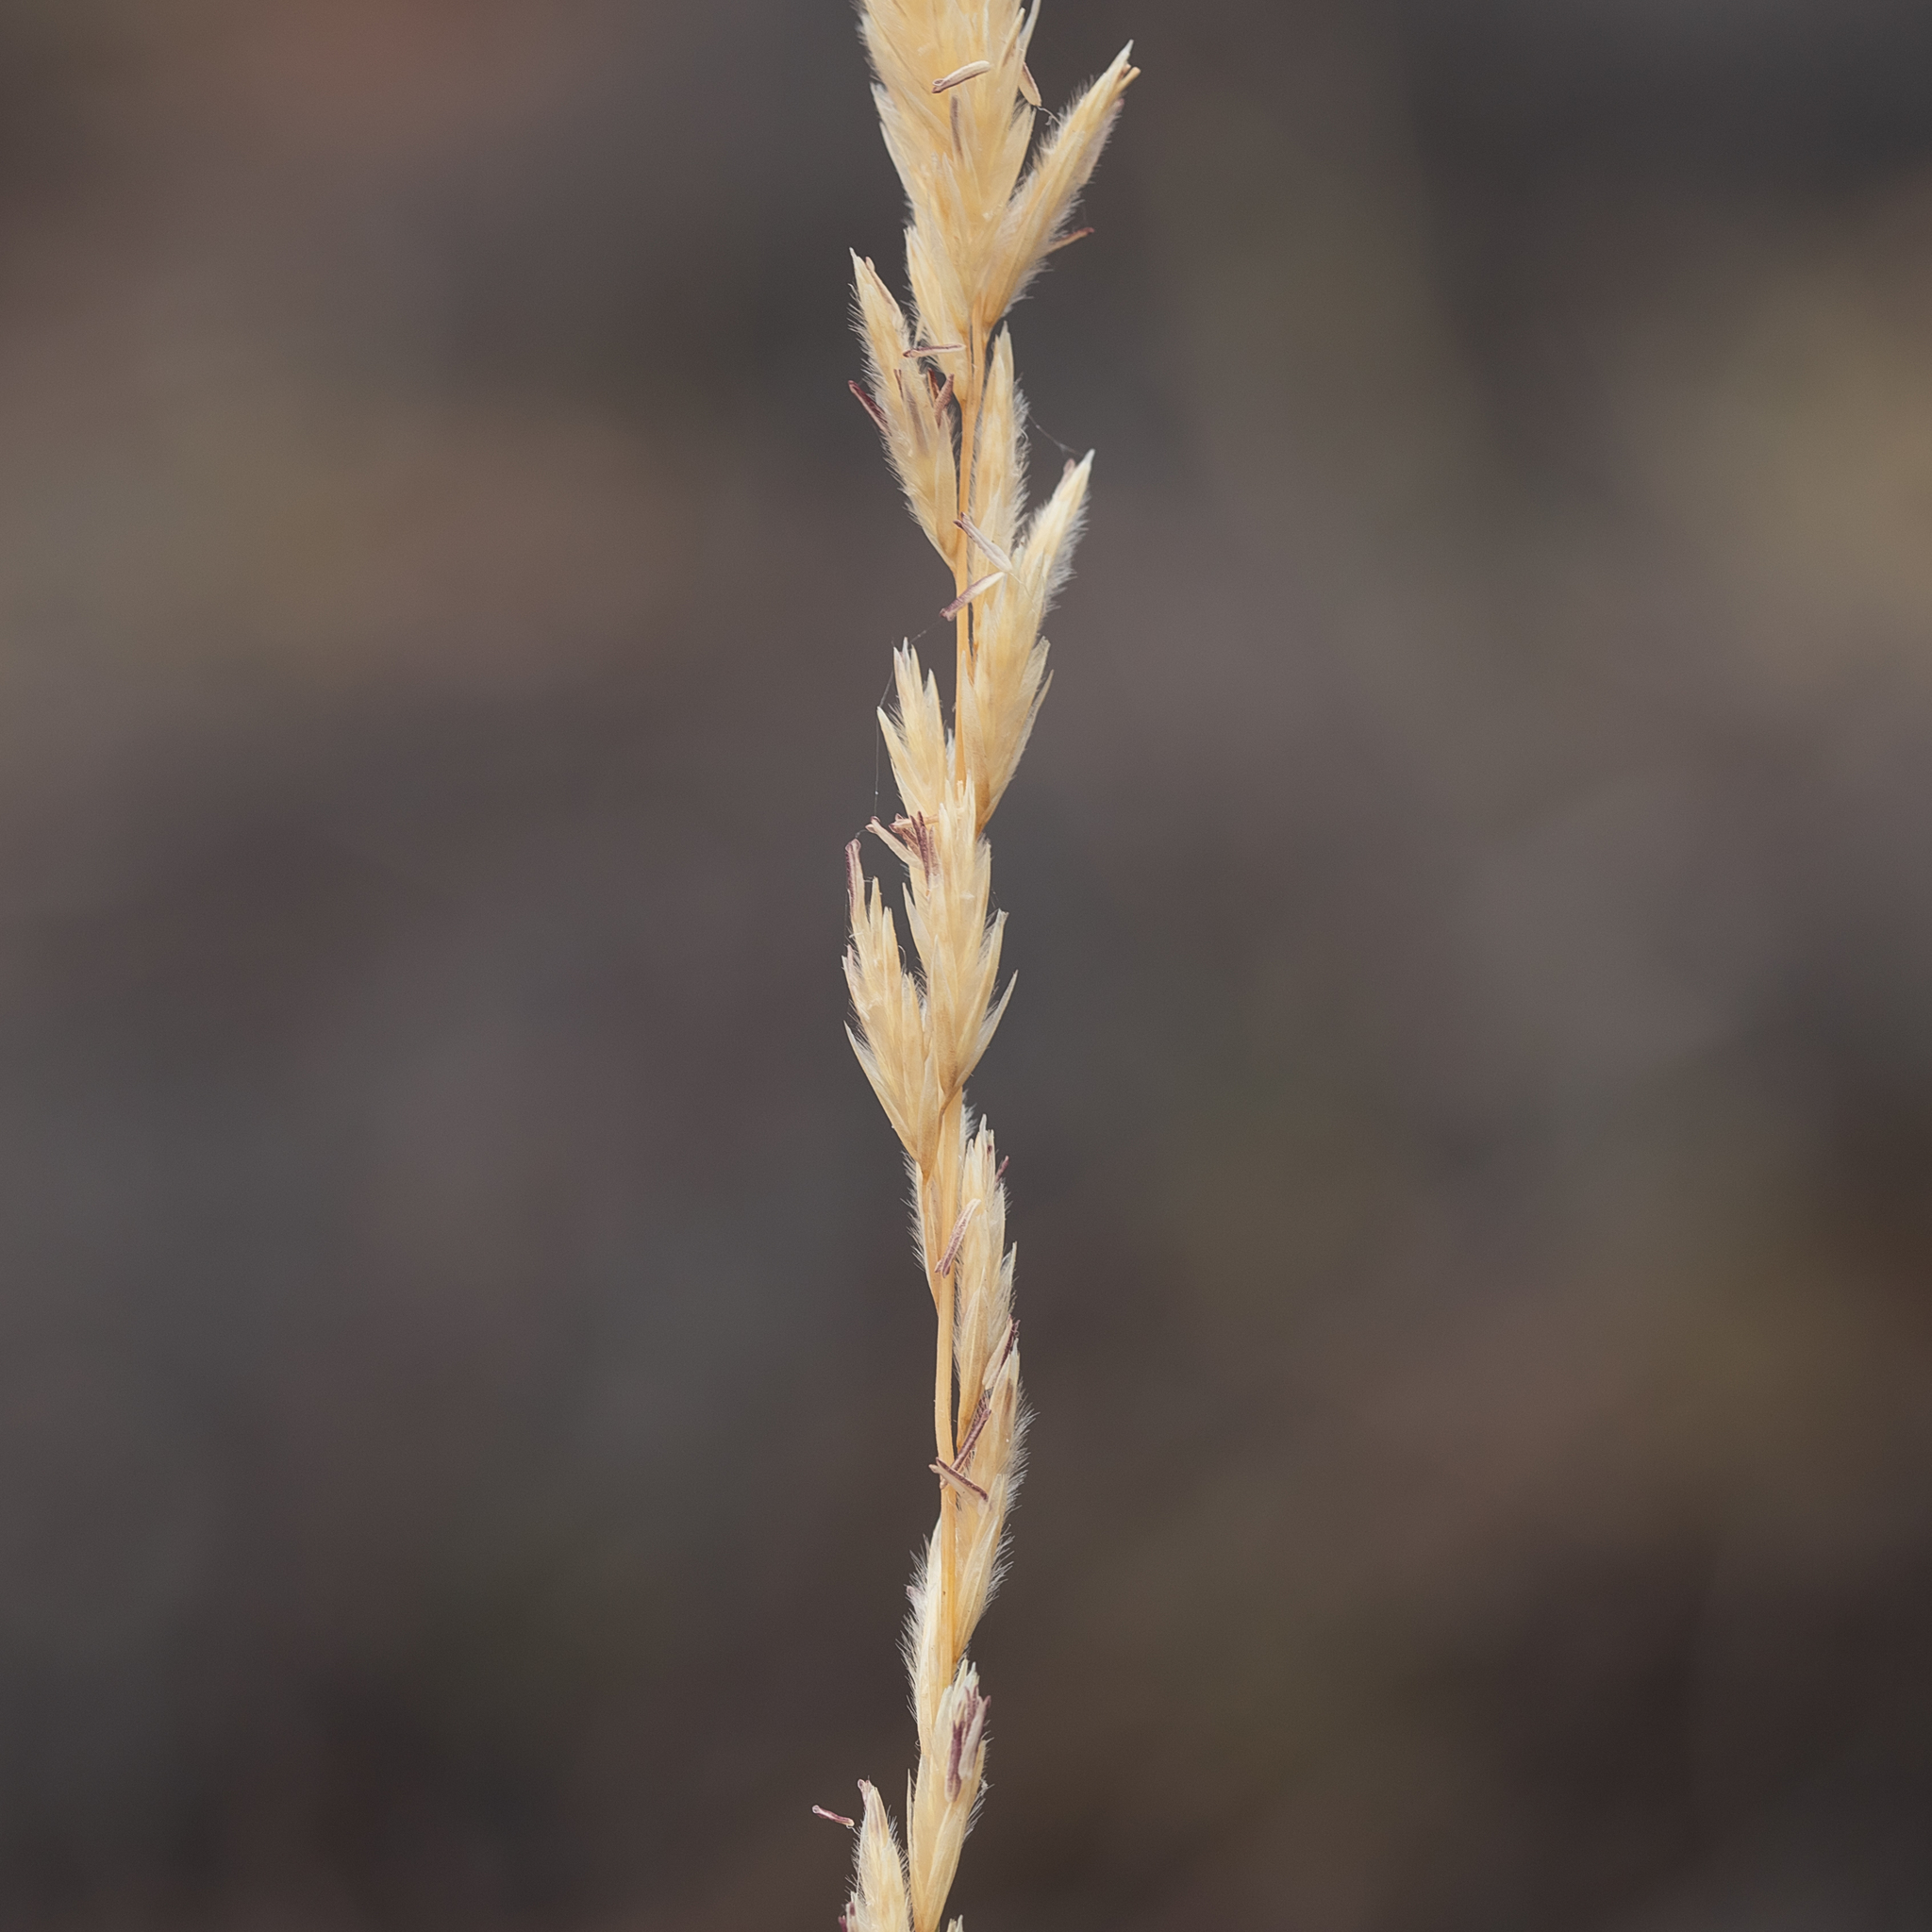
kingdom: Plantae
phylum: Tracheophyta
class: Liliopsida
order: Poales
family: Poaceae
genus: Triodia
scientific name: Triodia scariosa
